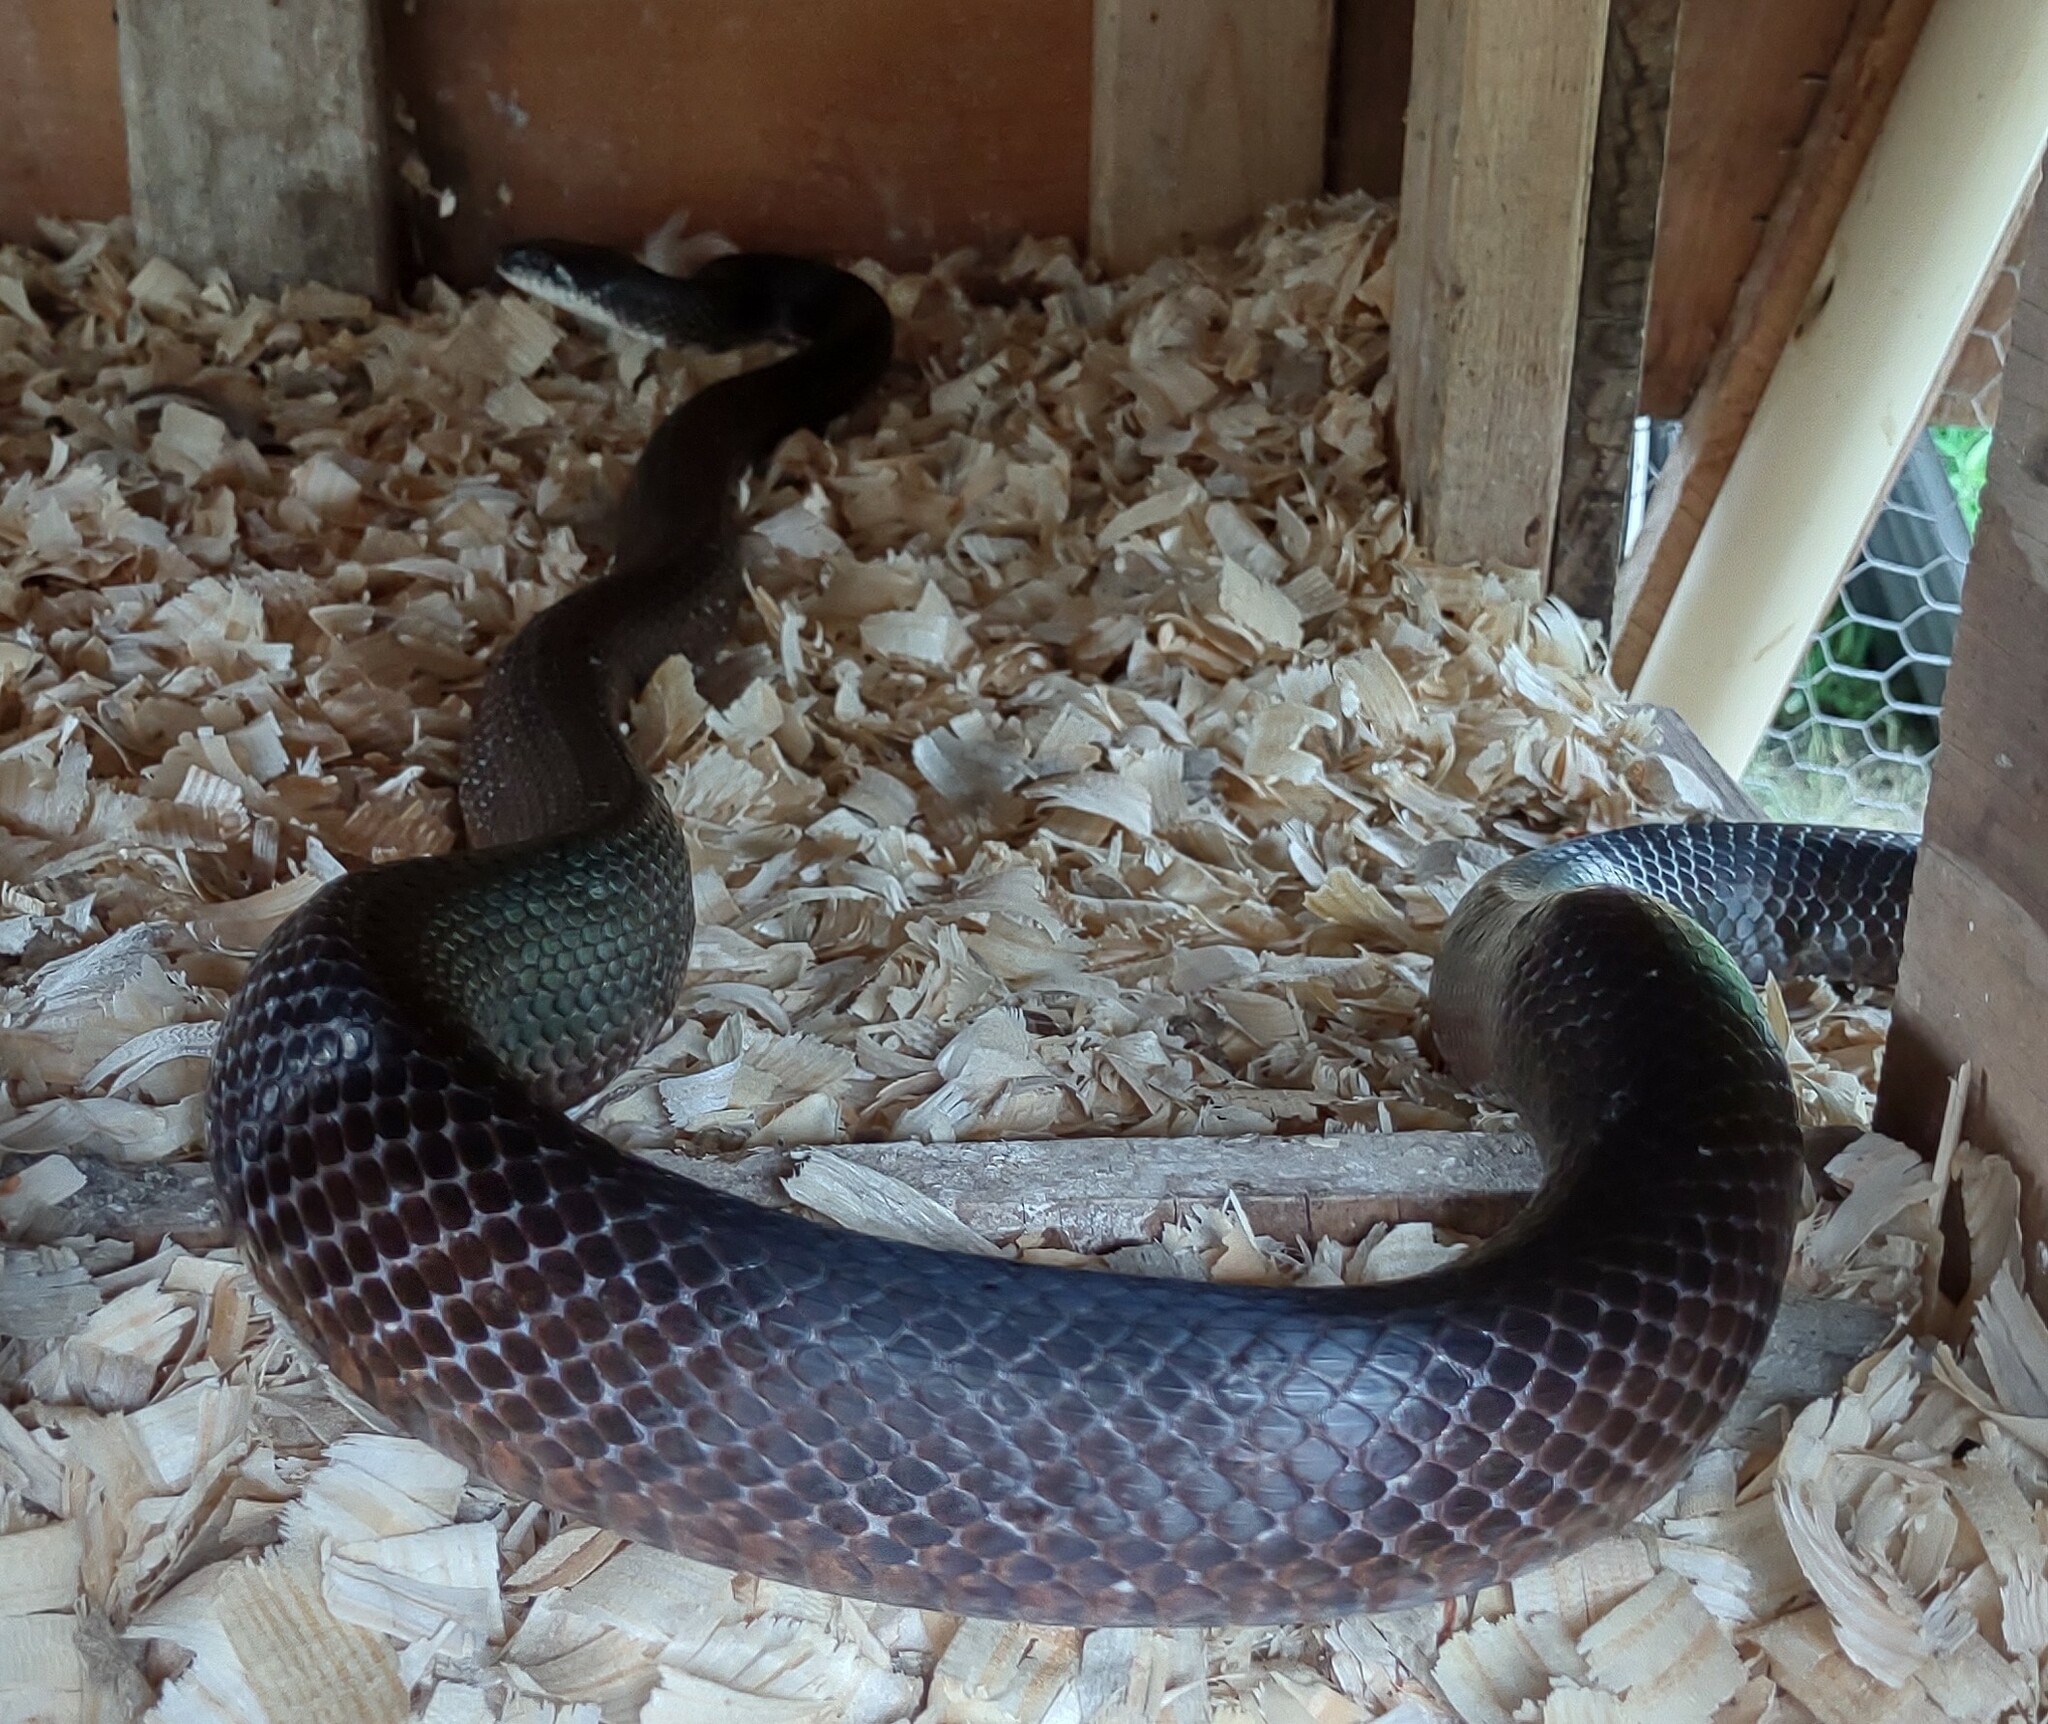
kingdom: Animalia
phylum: Chordata
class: Squamata
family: Colubridae
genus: Pantherophis
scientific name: Pantherophis alleghaniensis
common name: Eastern rat snake
